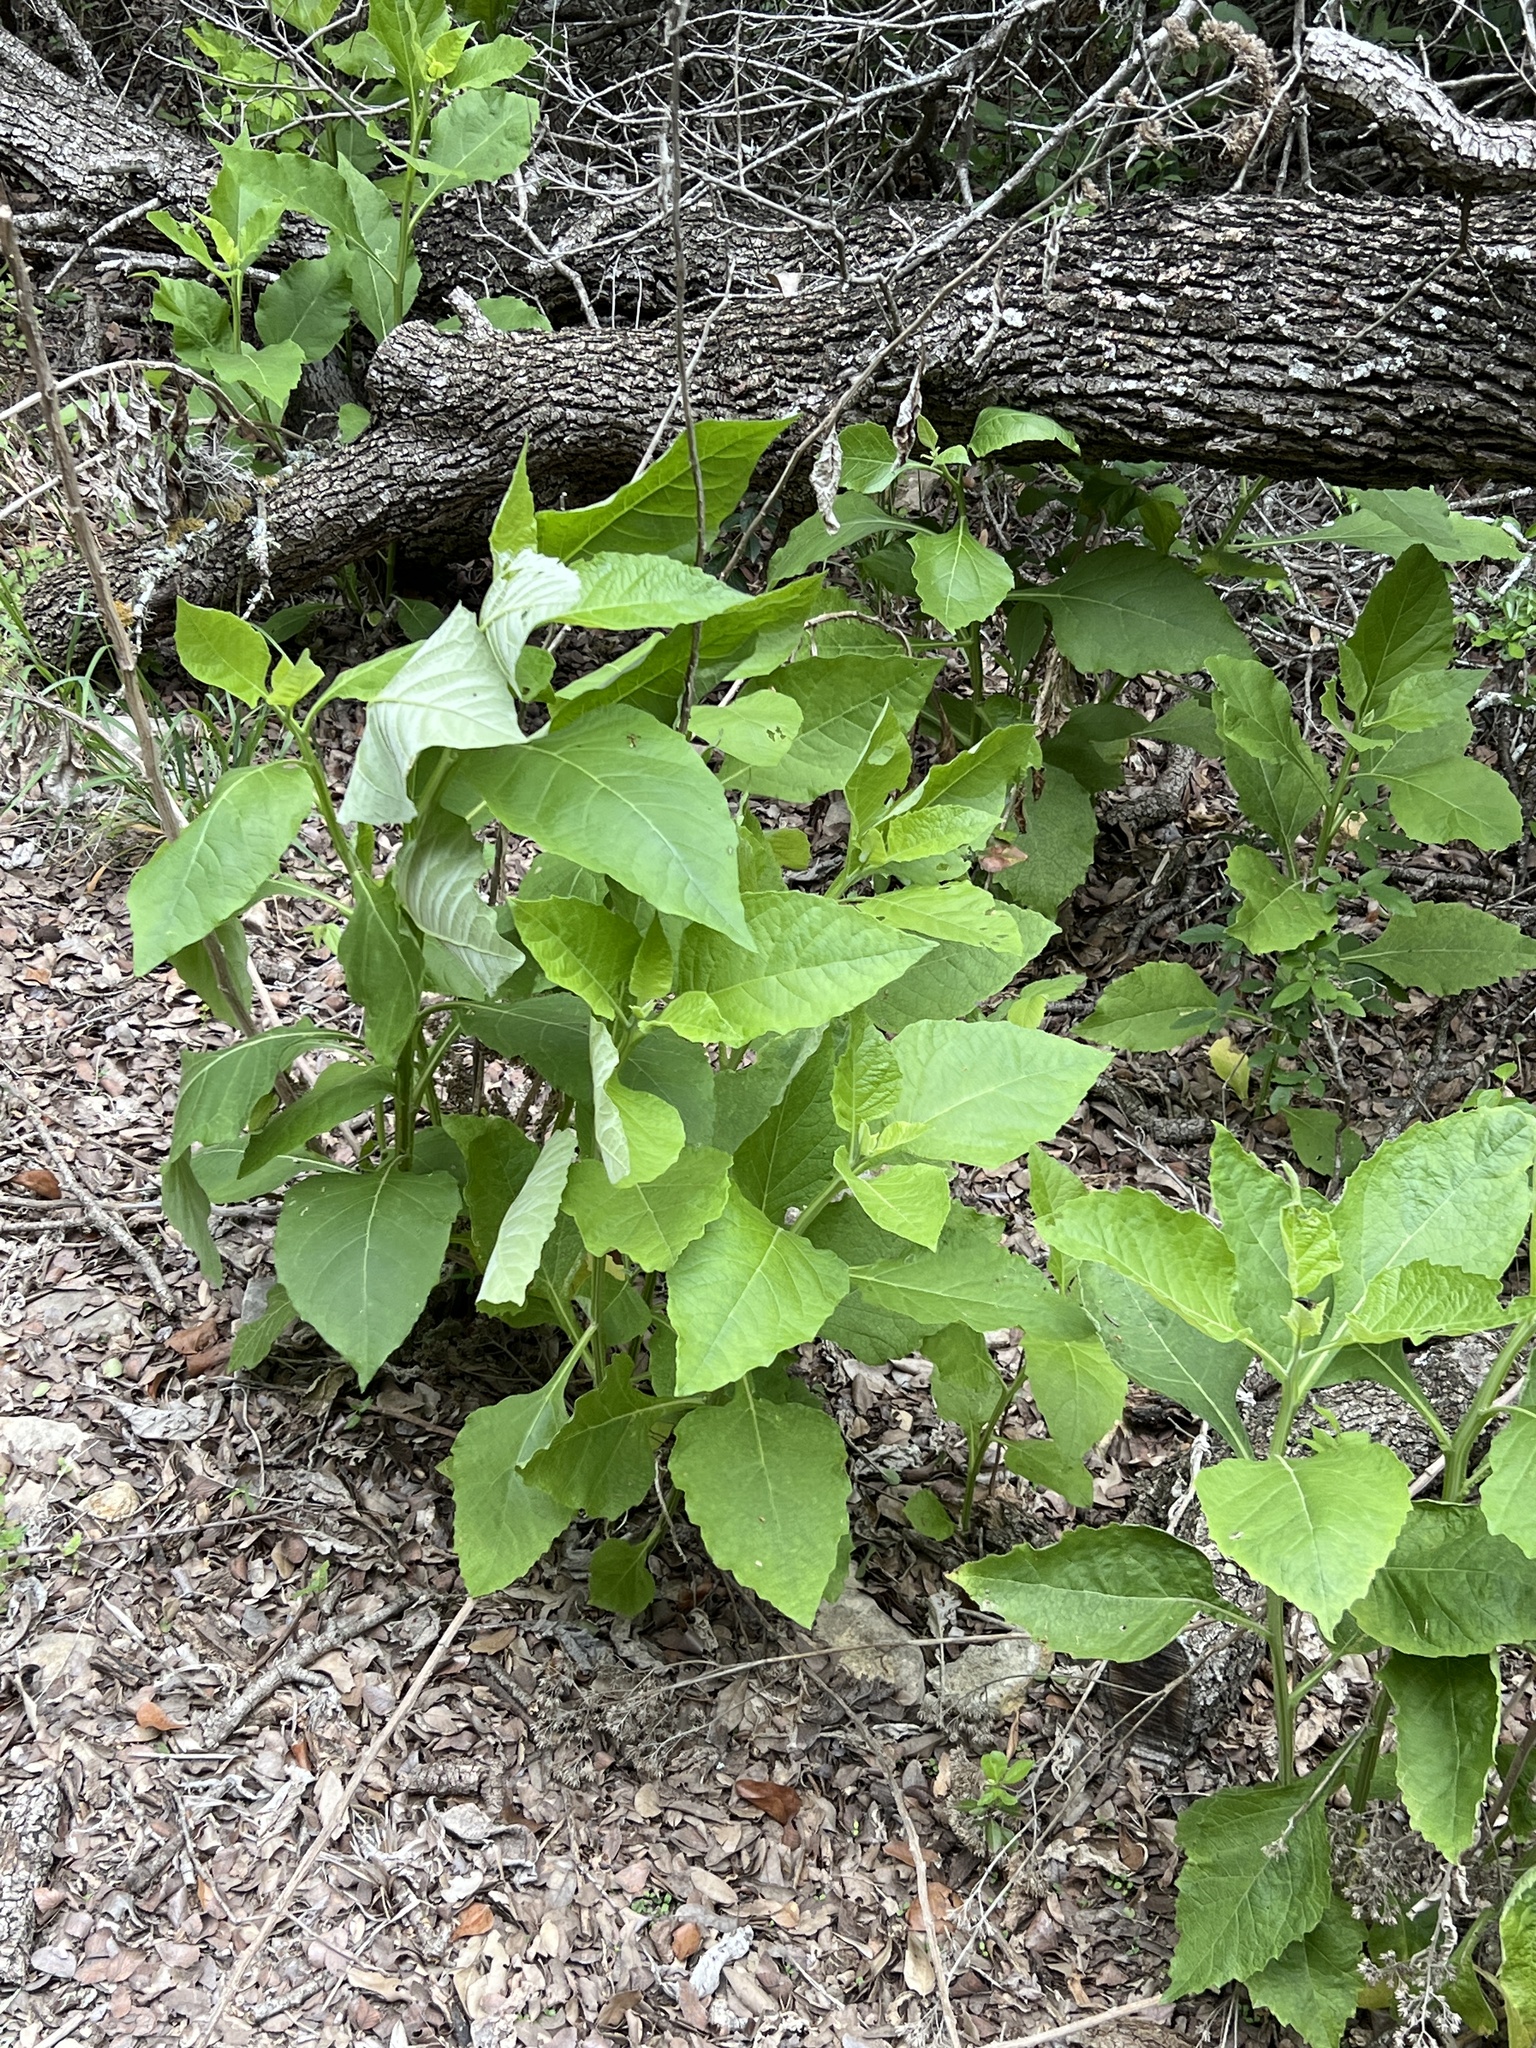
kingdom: Plantae
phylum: Tracheophyta
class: Magnoliopsida
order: Asterales
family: Asteraceae
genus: Verbesina
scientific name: Verbesina virginica
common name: Frostweed
